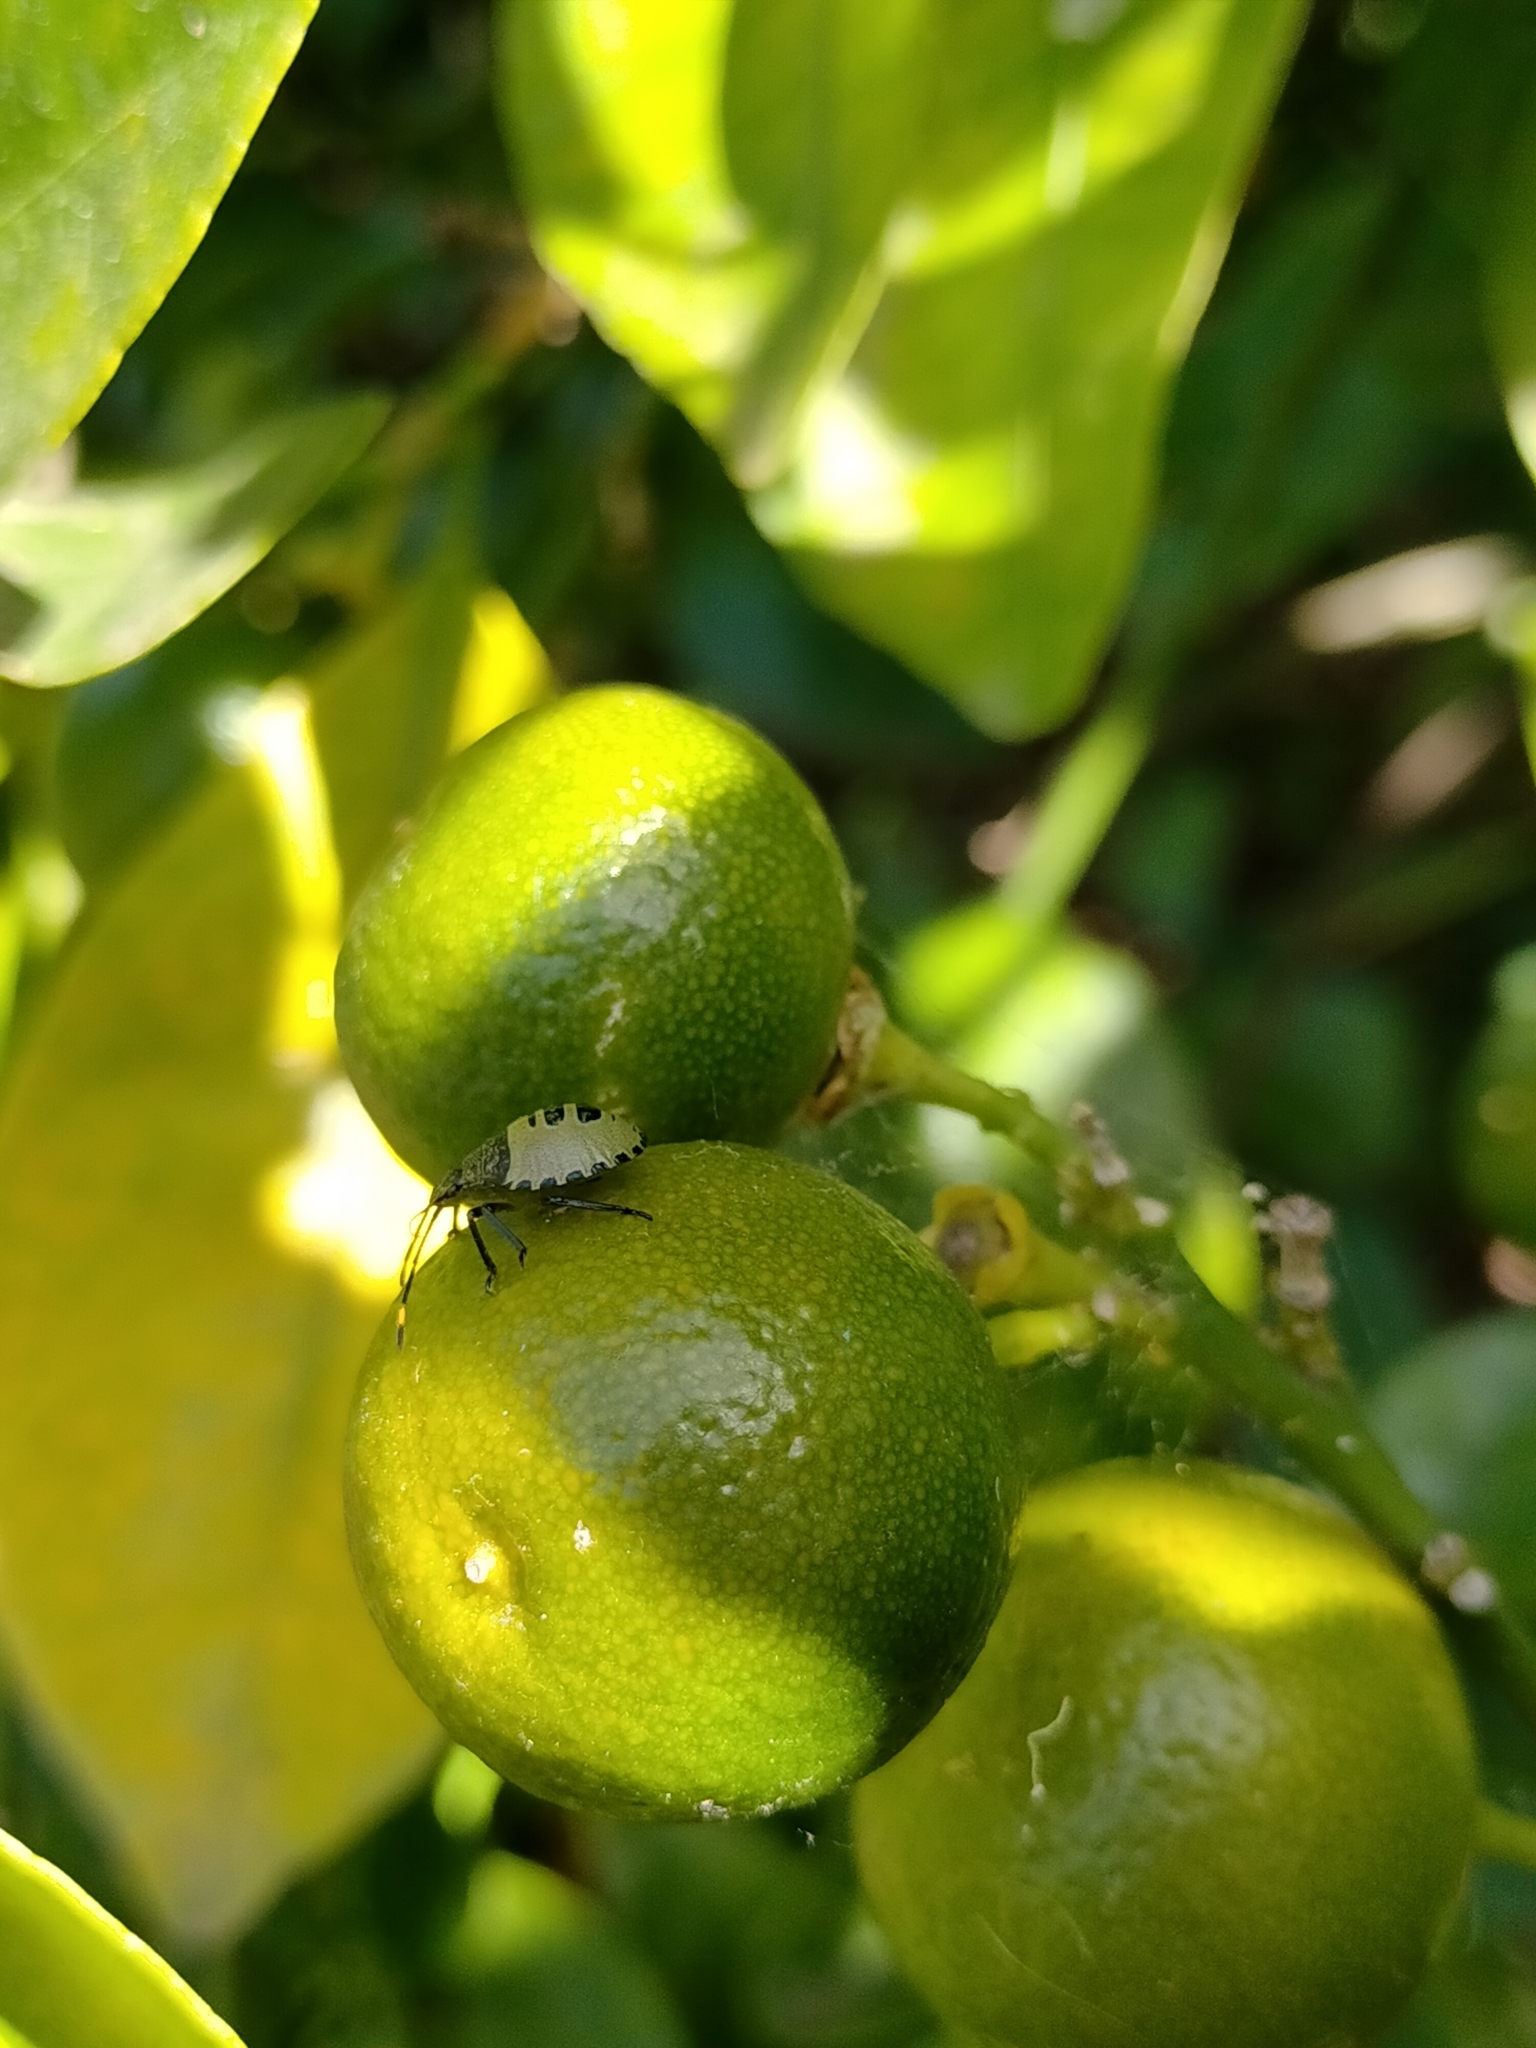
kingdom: Animalia
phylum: Arthropoda
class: Insecta
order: Hemiptera
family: Pentatomidae
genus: Biprorulus
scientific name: Biprorulus
